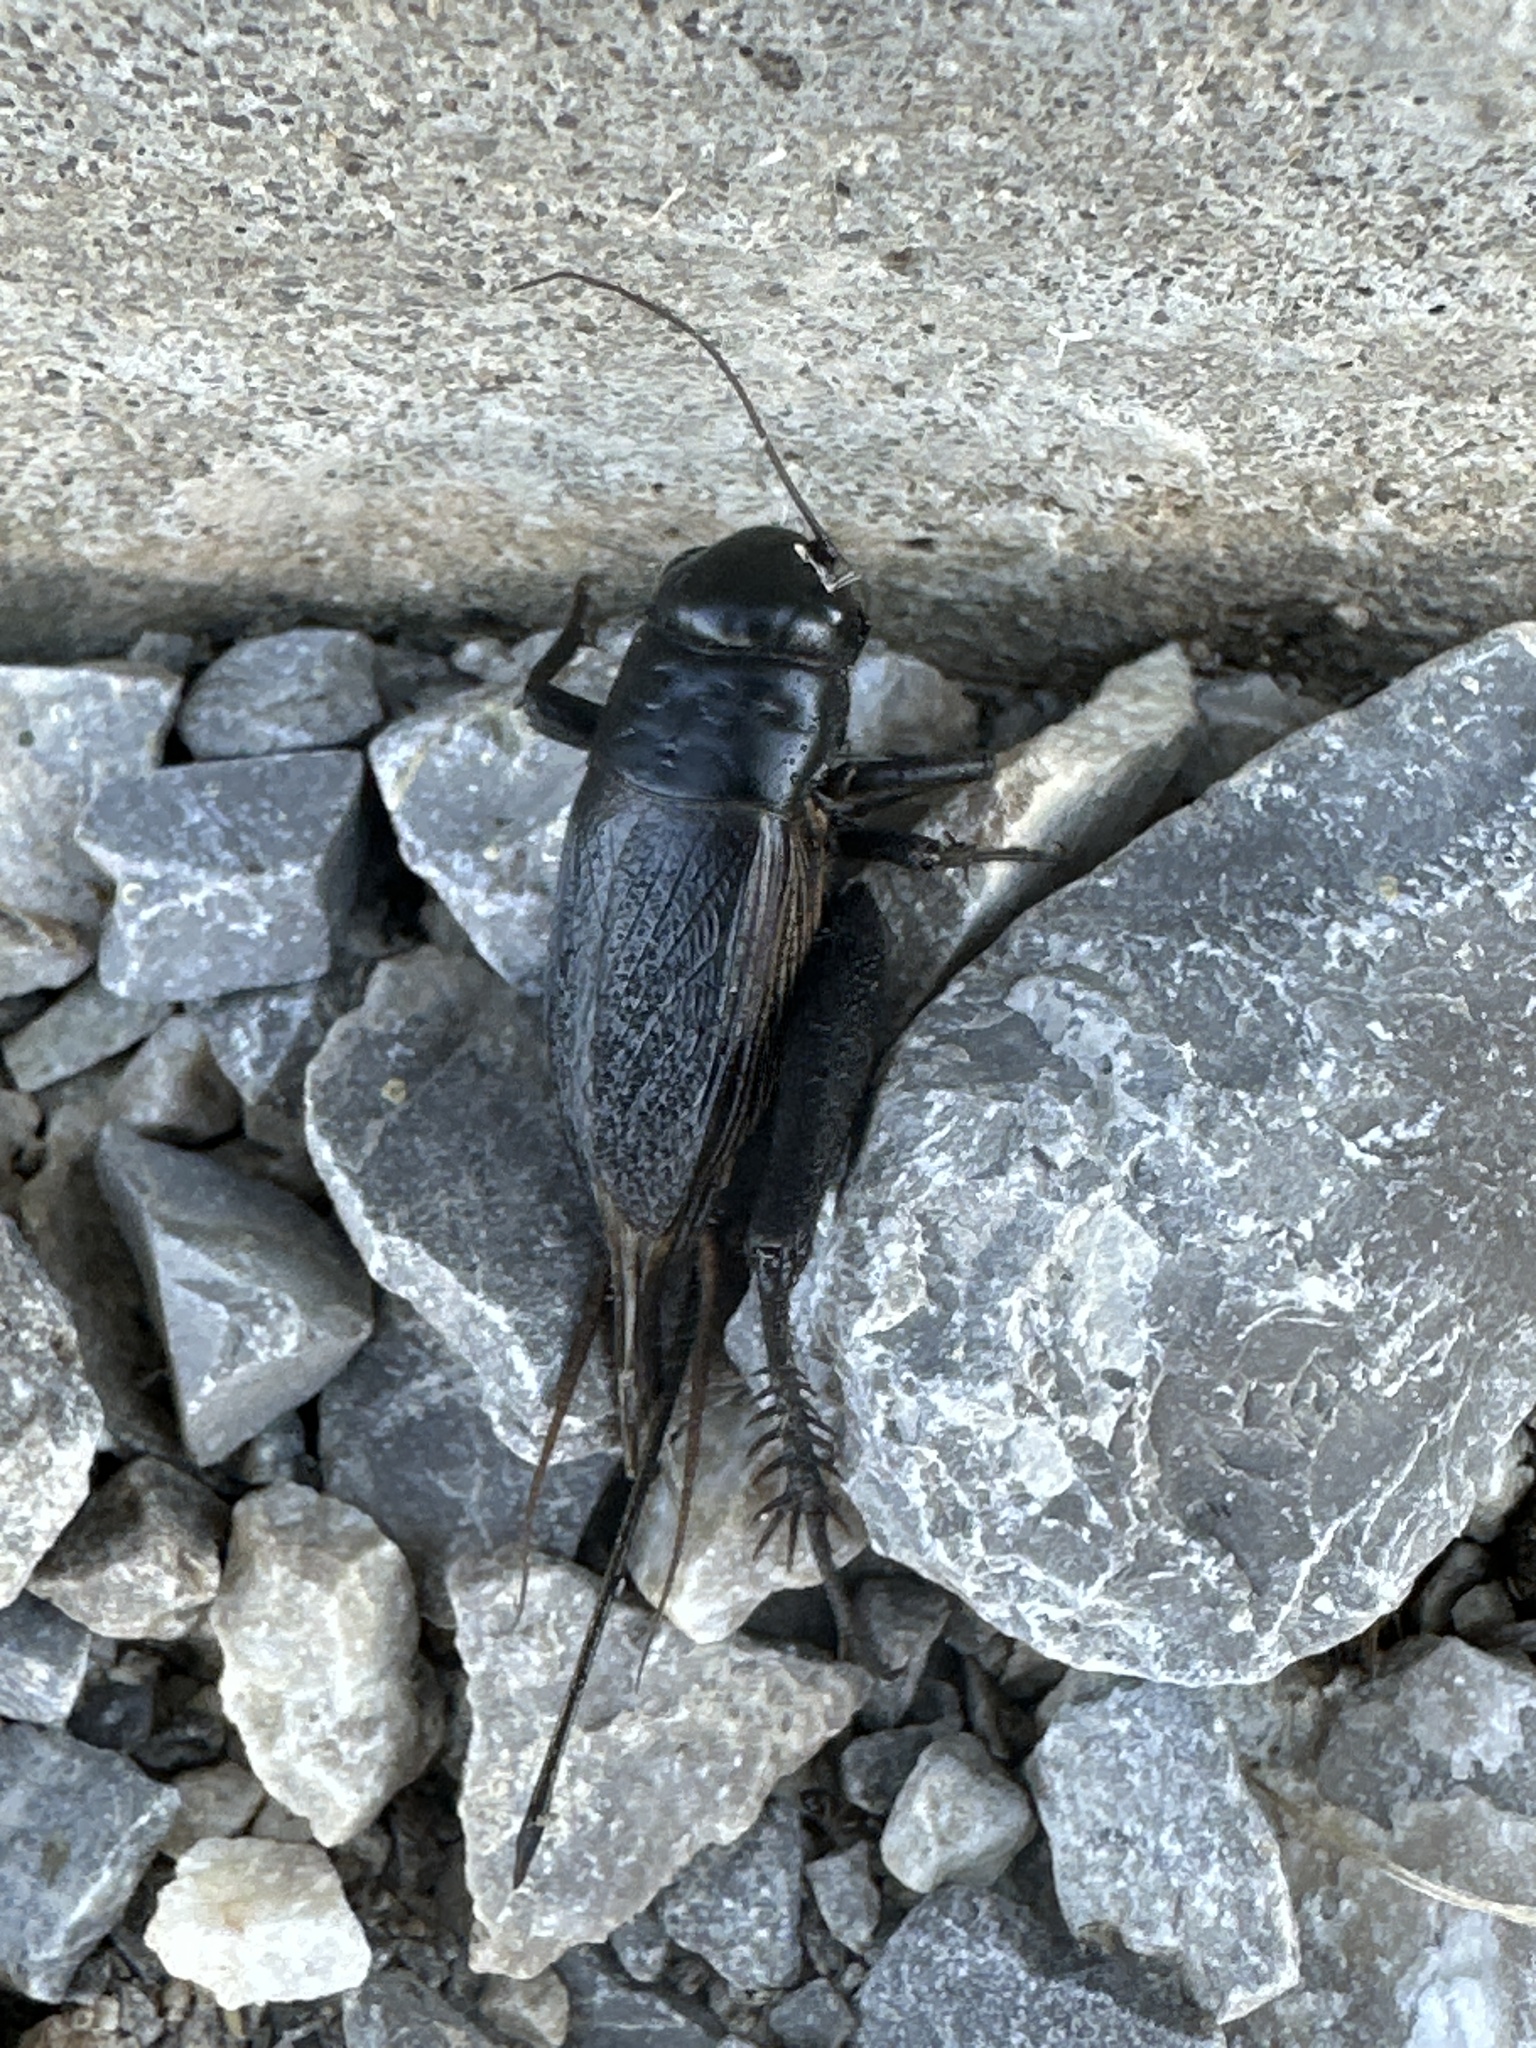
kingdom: Animalia
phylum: Arthropoda
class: Insecta
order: Orthoptera
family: Gryllidae
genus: Gryllus
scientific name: Gryllus pennsylvanicus
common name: Fall field cricket
